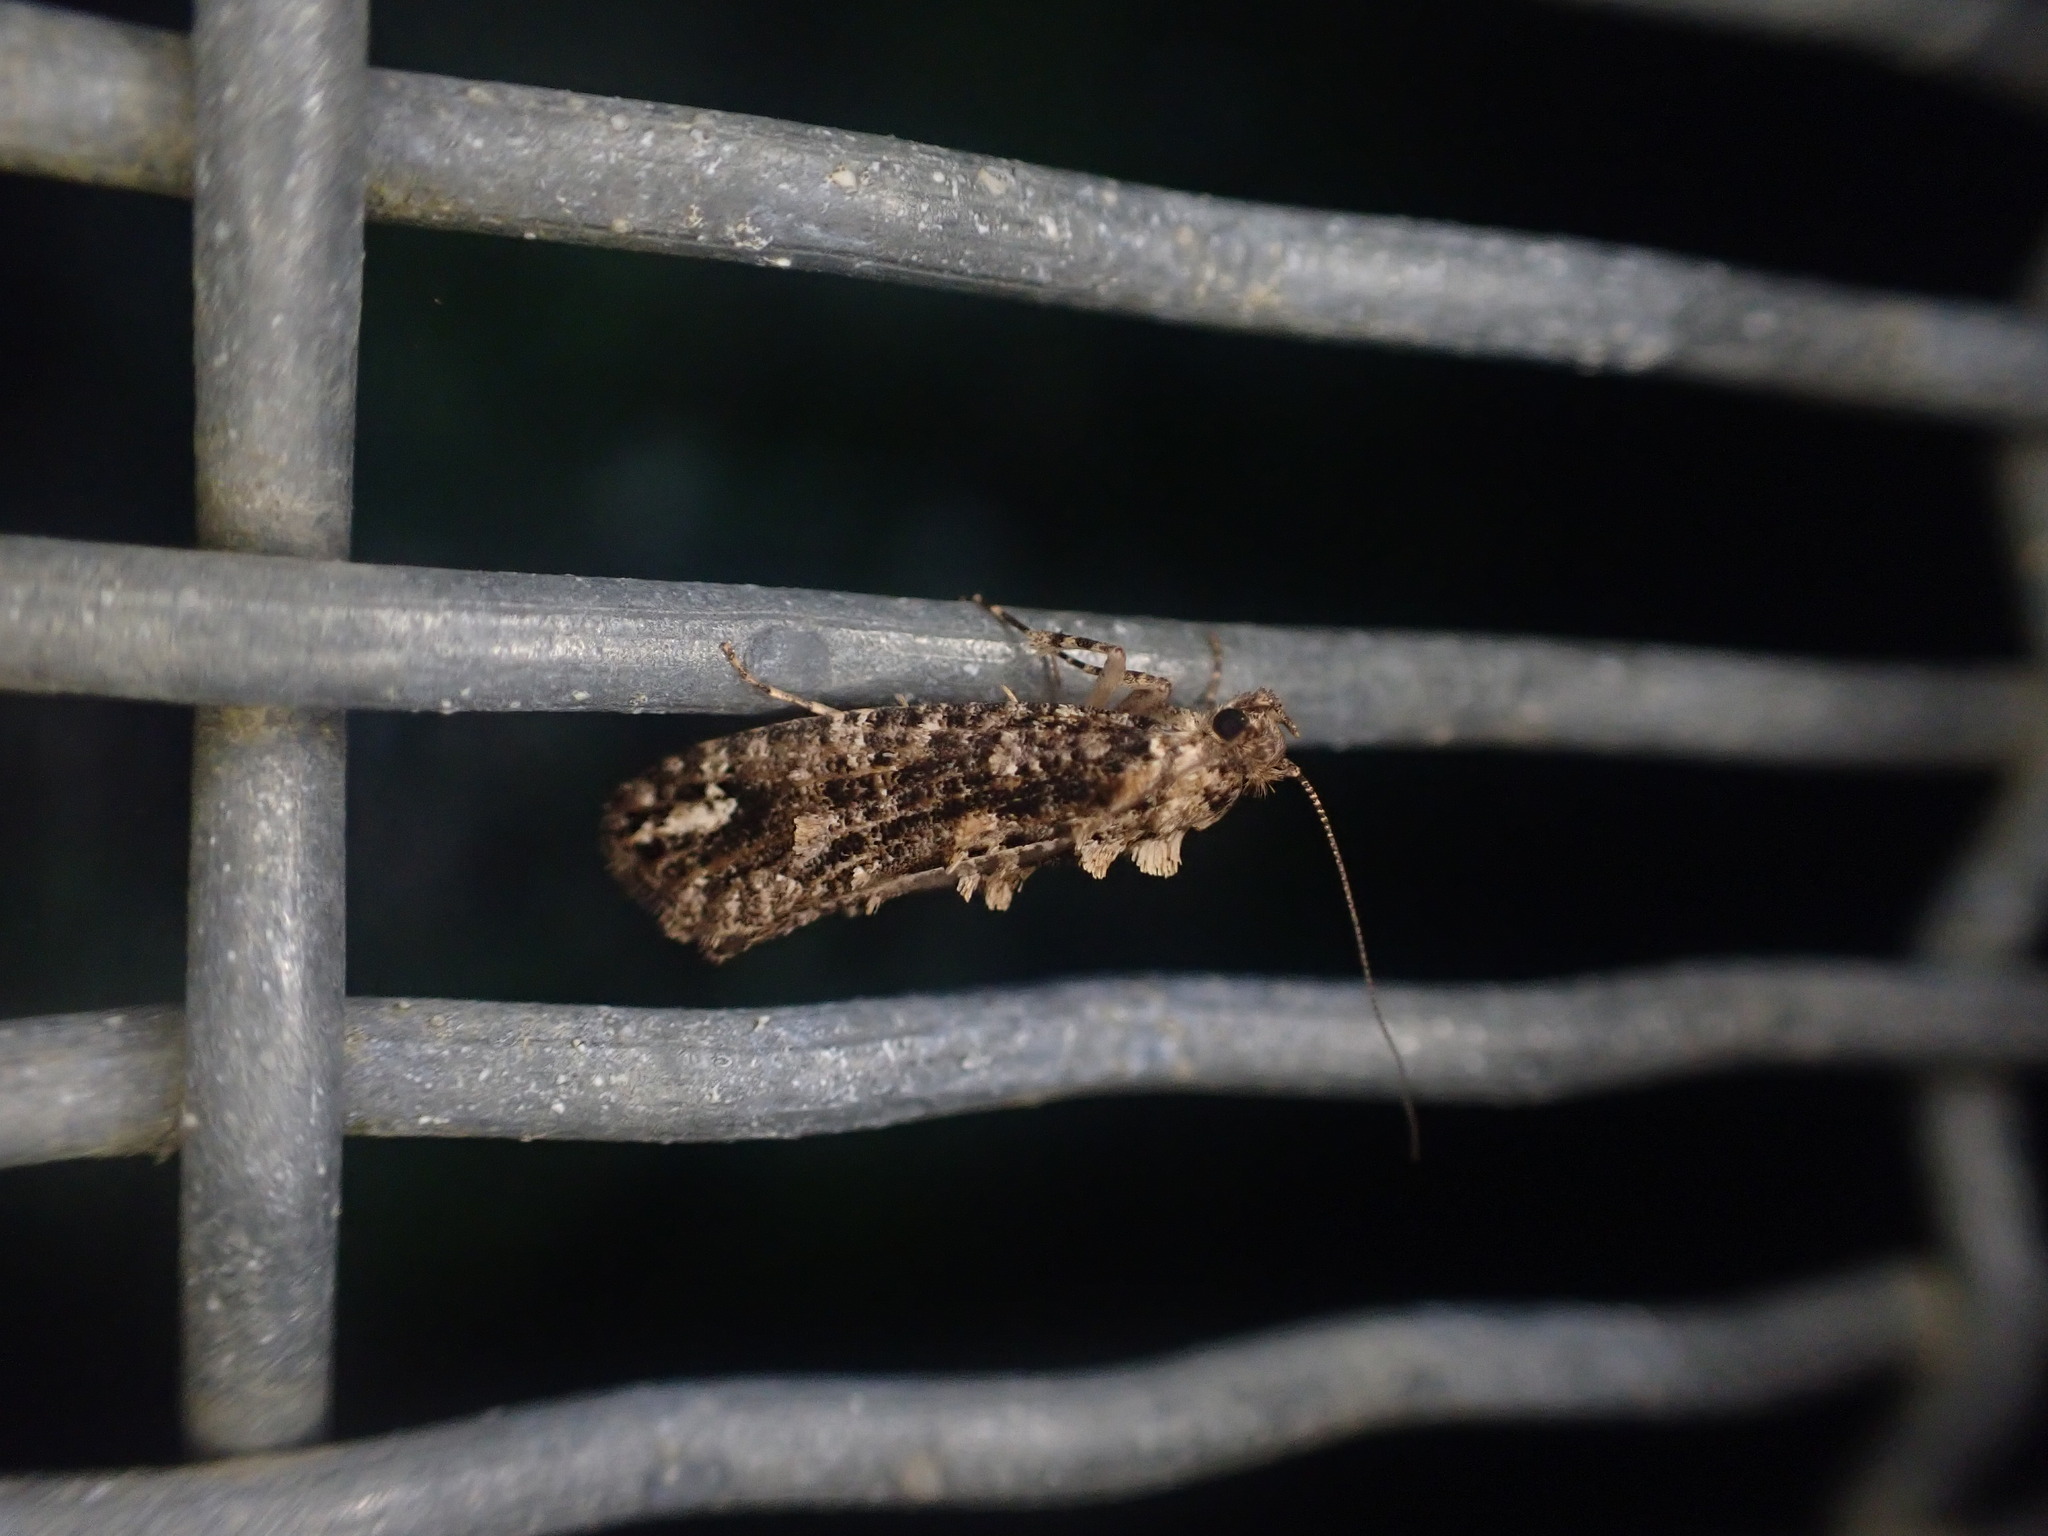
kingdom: Animalia
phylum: Arthropoda
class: Insecta
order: Lepidoptera
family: Tineidae
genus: Lysiphragma
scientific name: Lysiphragma epixyla
